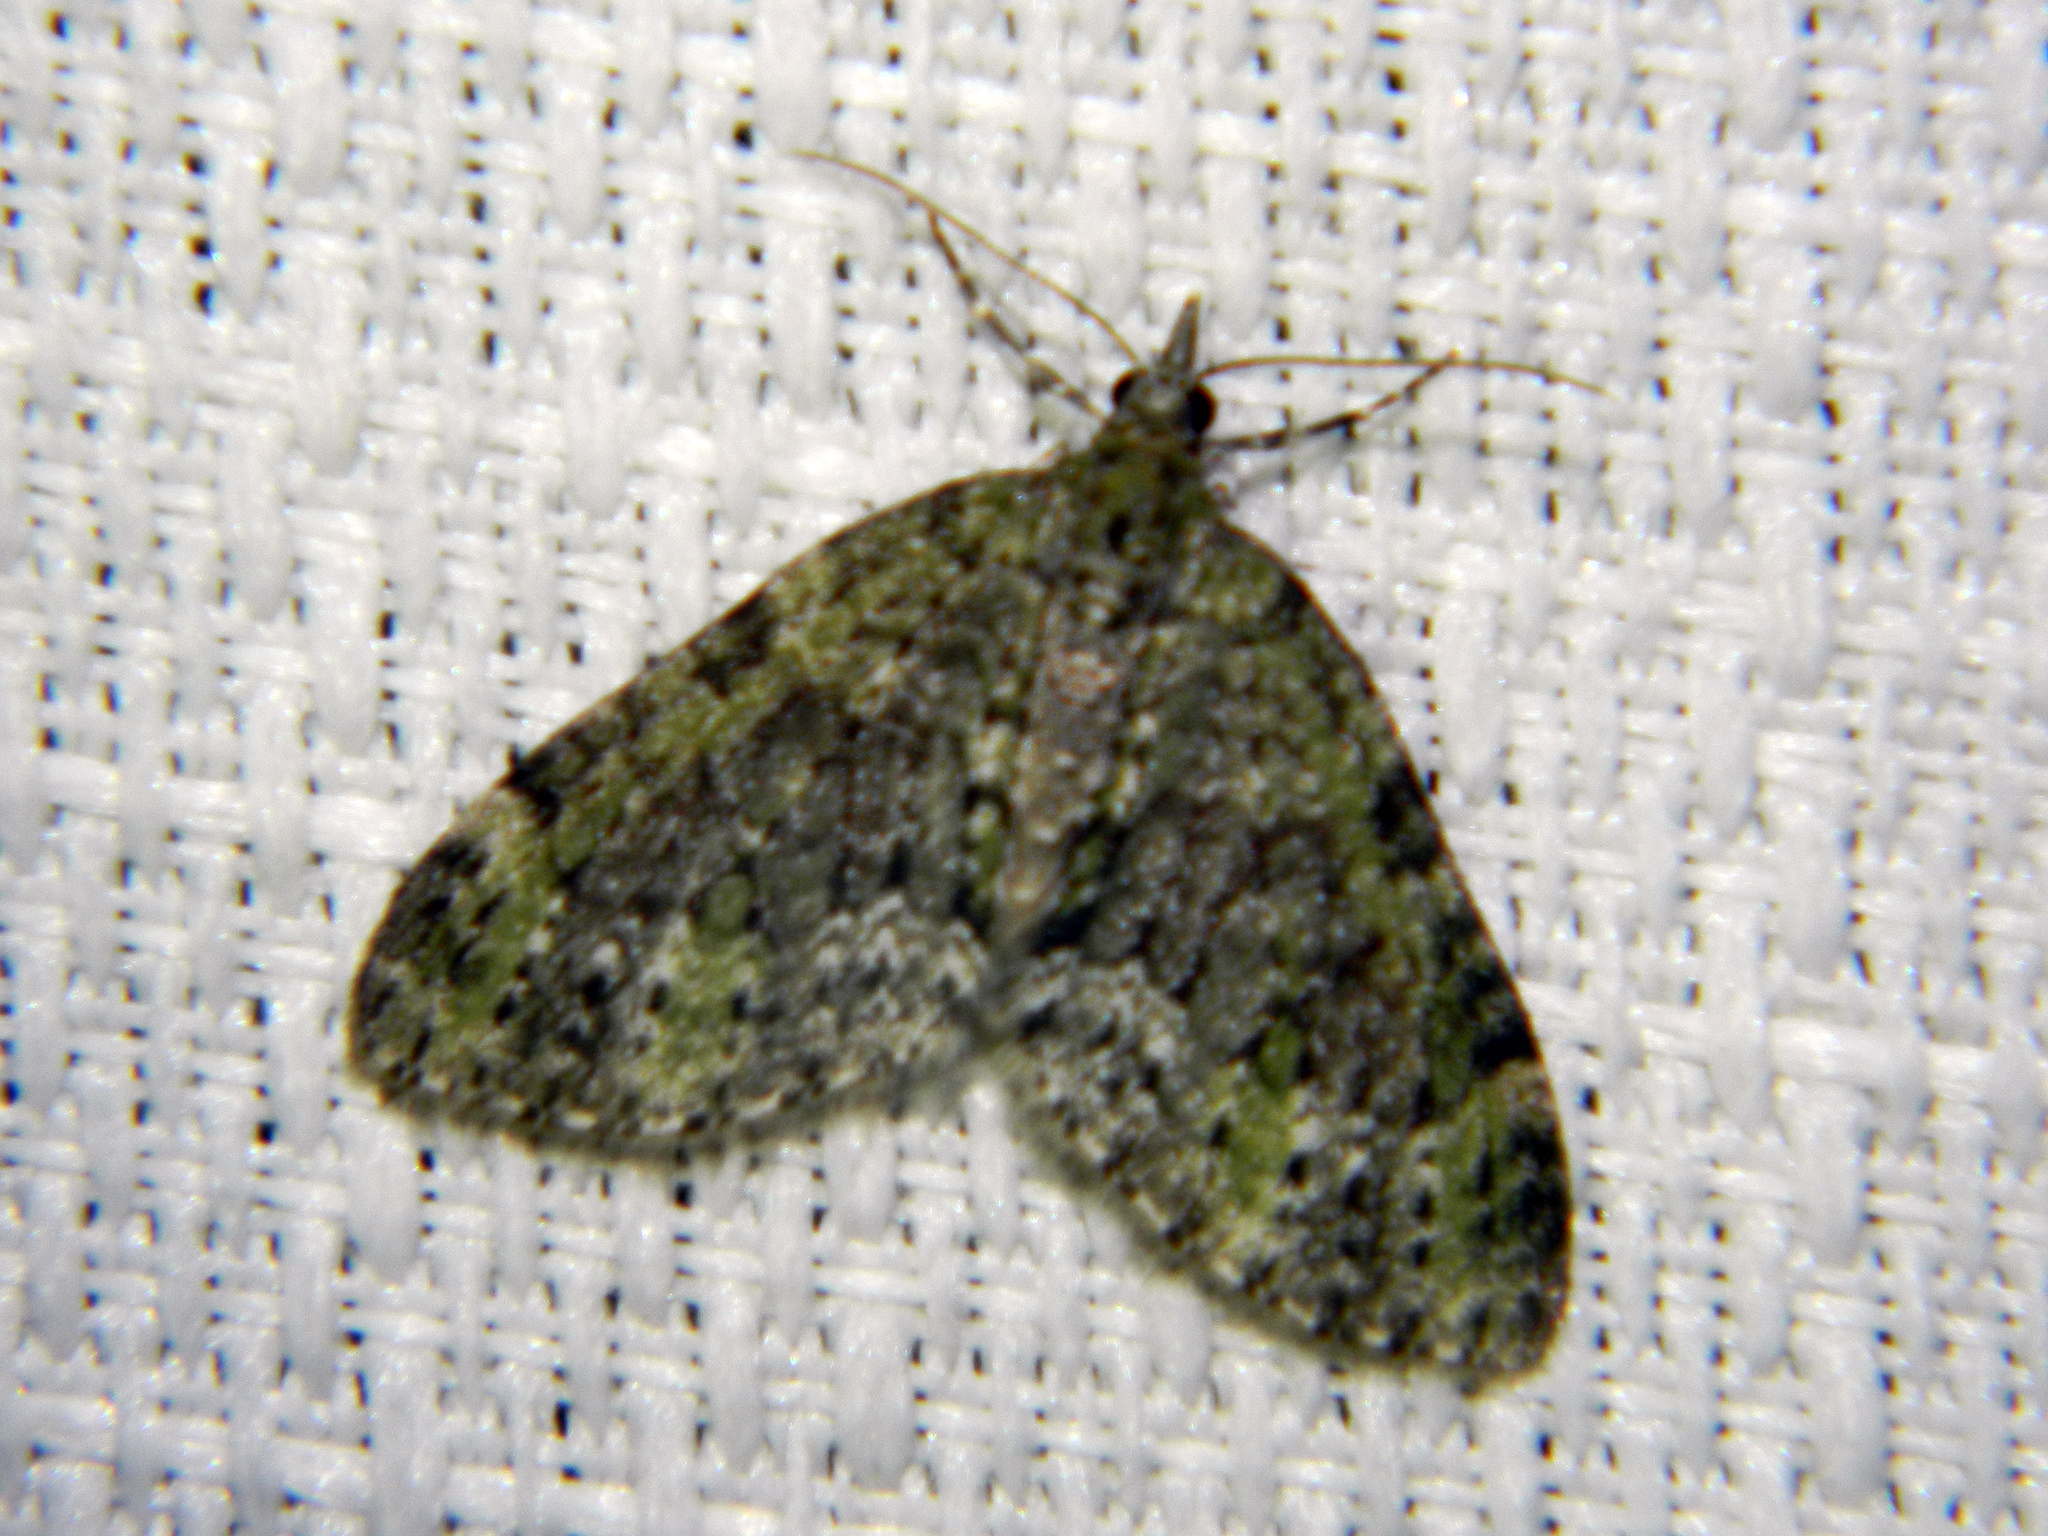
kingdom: Animalia
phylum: Arthropoda
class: Insecta
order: Lepidoptera
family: Geometridae
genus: Acasis
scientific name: Acasis viridata
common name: Olive-and-black carpet moth
